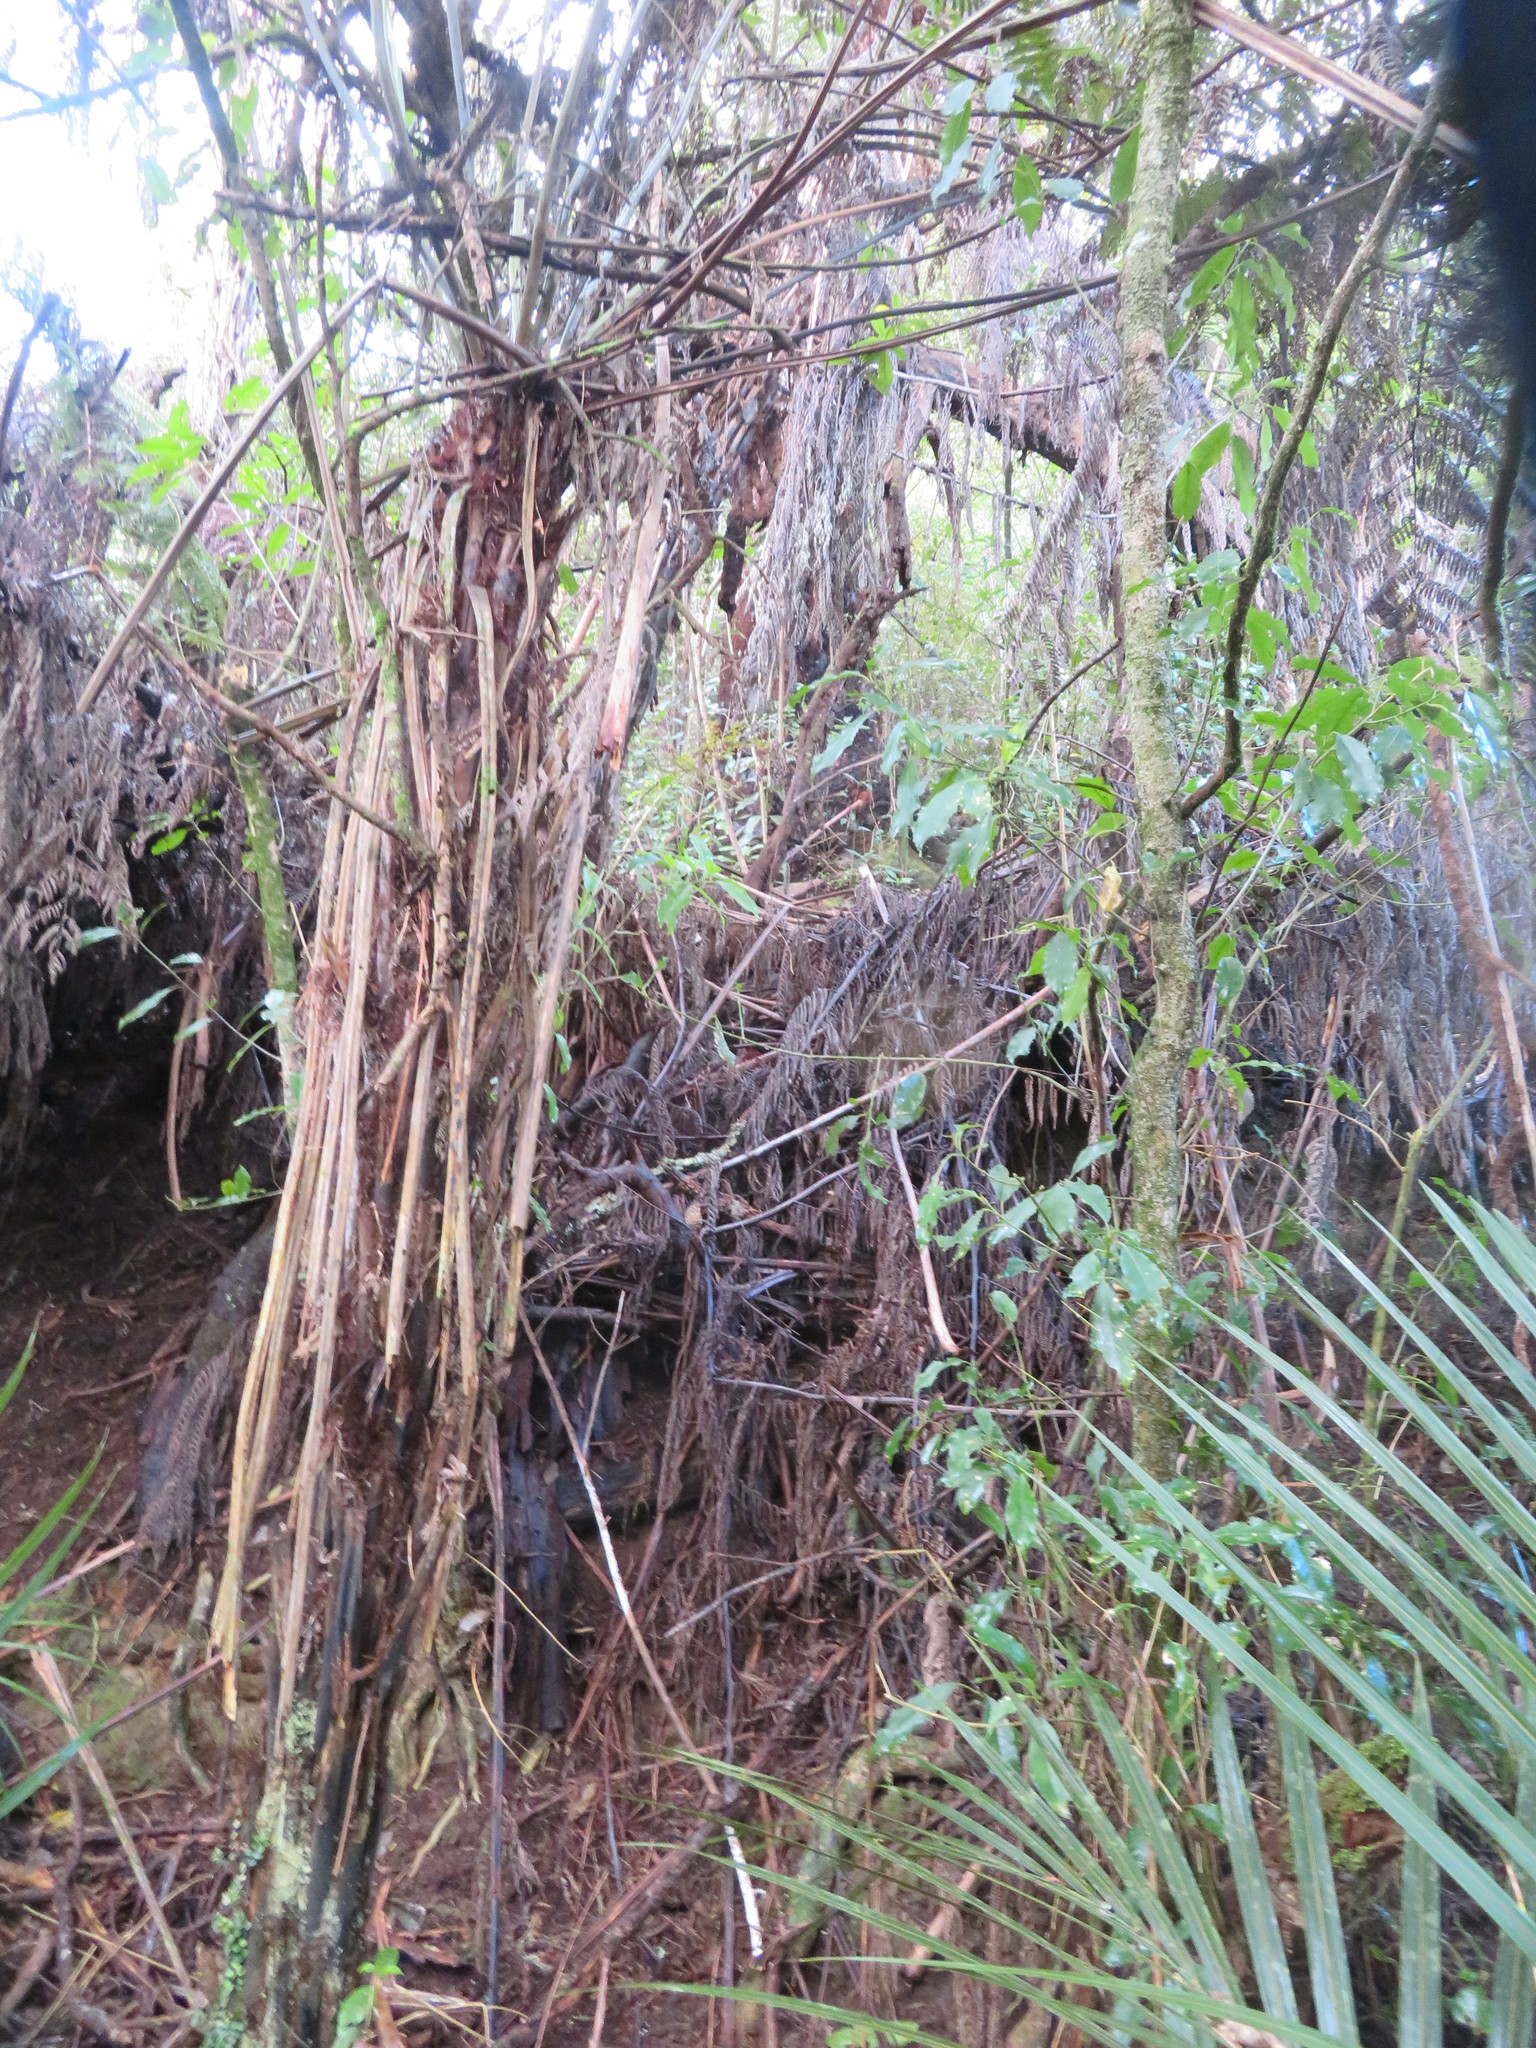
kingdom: Plantae
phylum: Tracheophyta
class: Magnoliopsida
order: Malpighiales
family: Violaceae
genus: Melicytus
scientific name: Melicytus ramiflorus
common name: Mahoe
